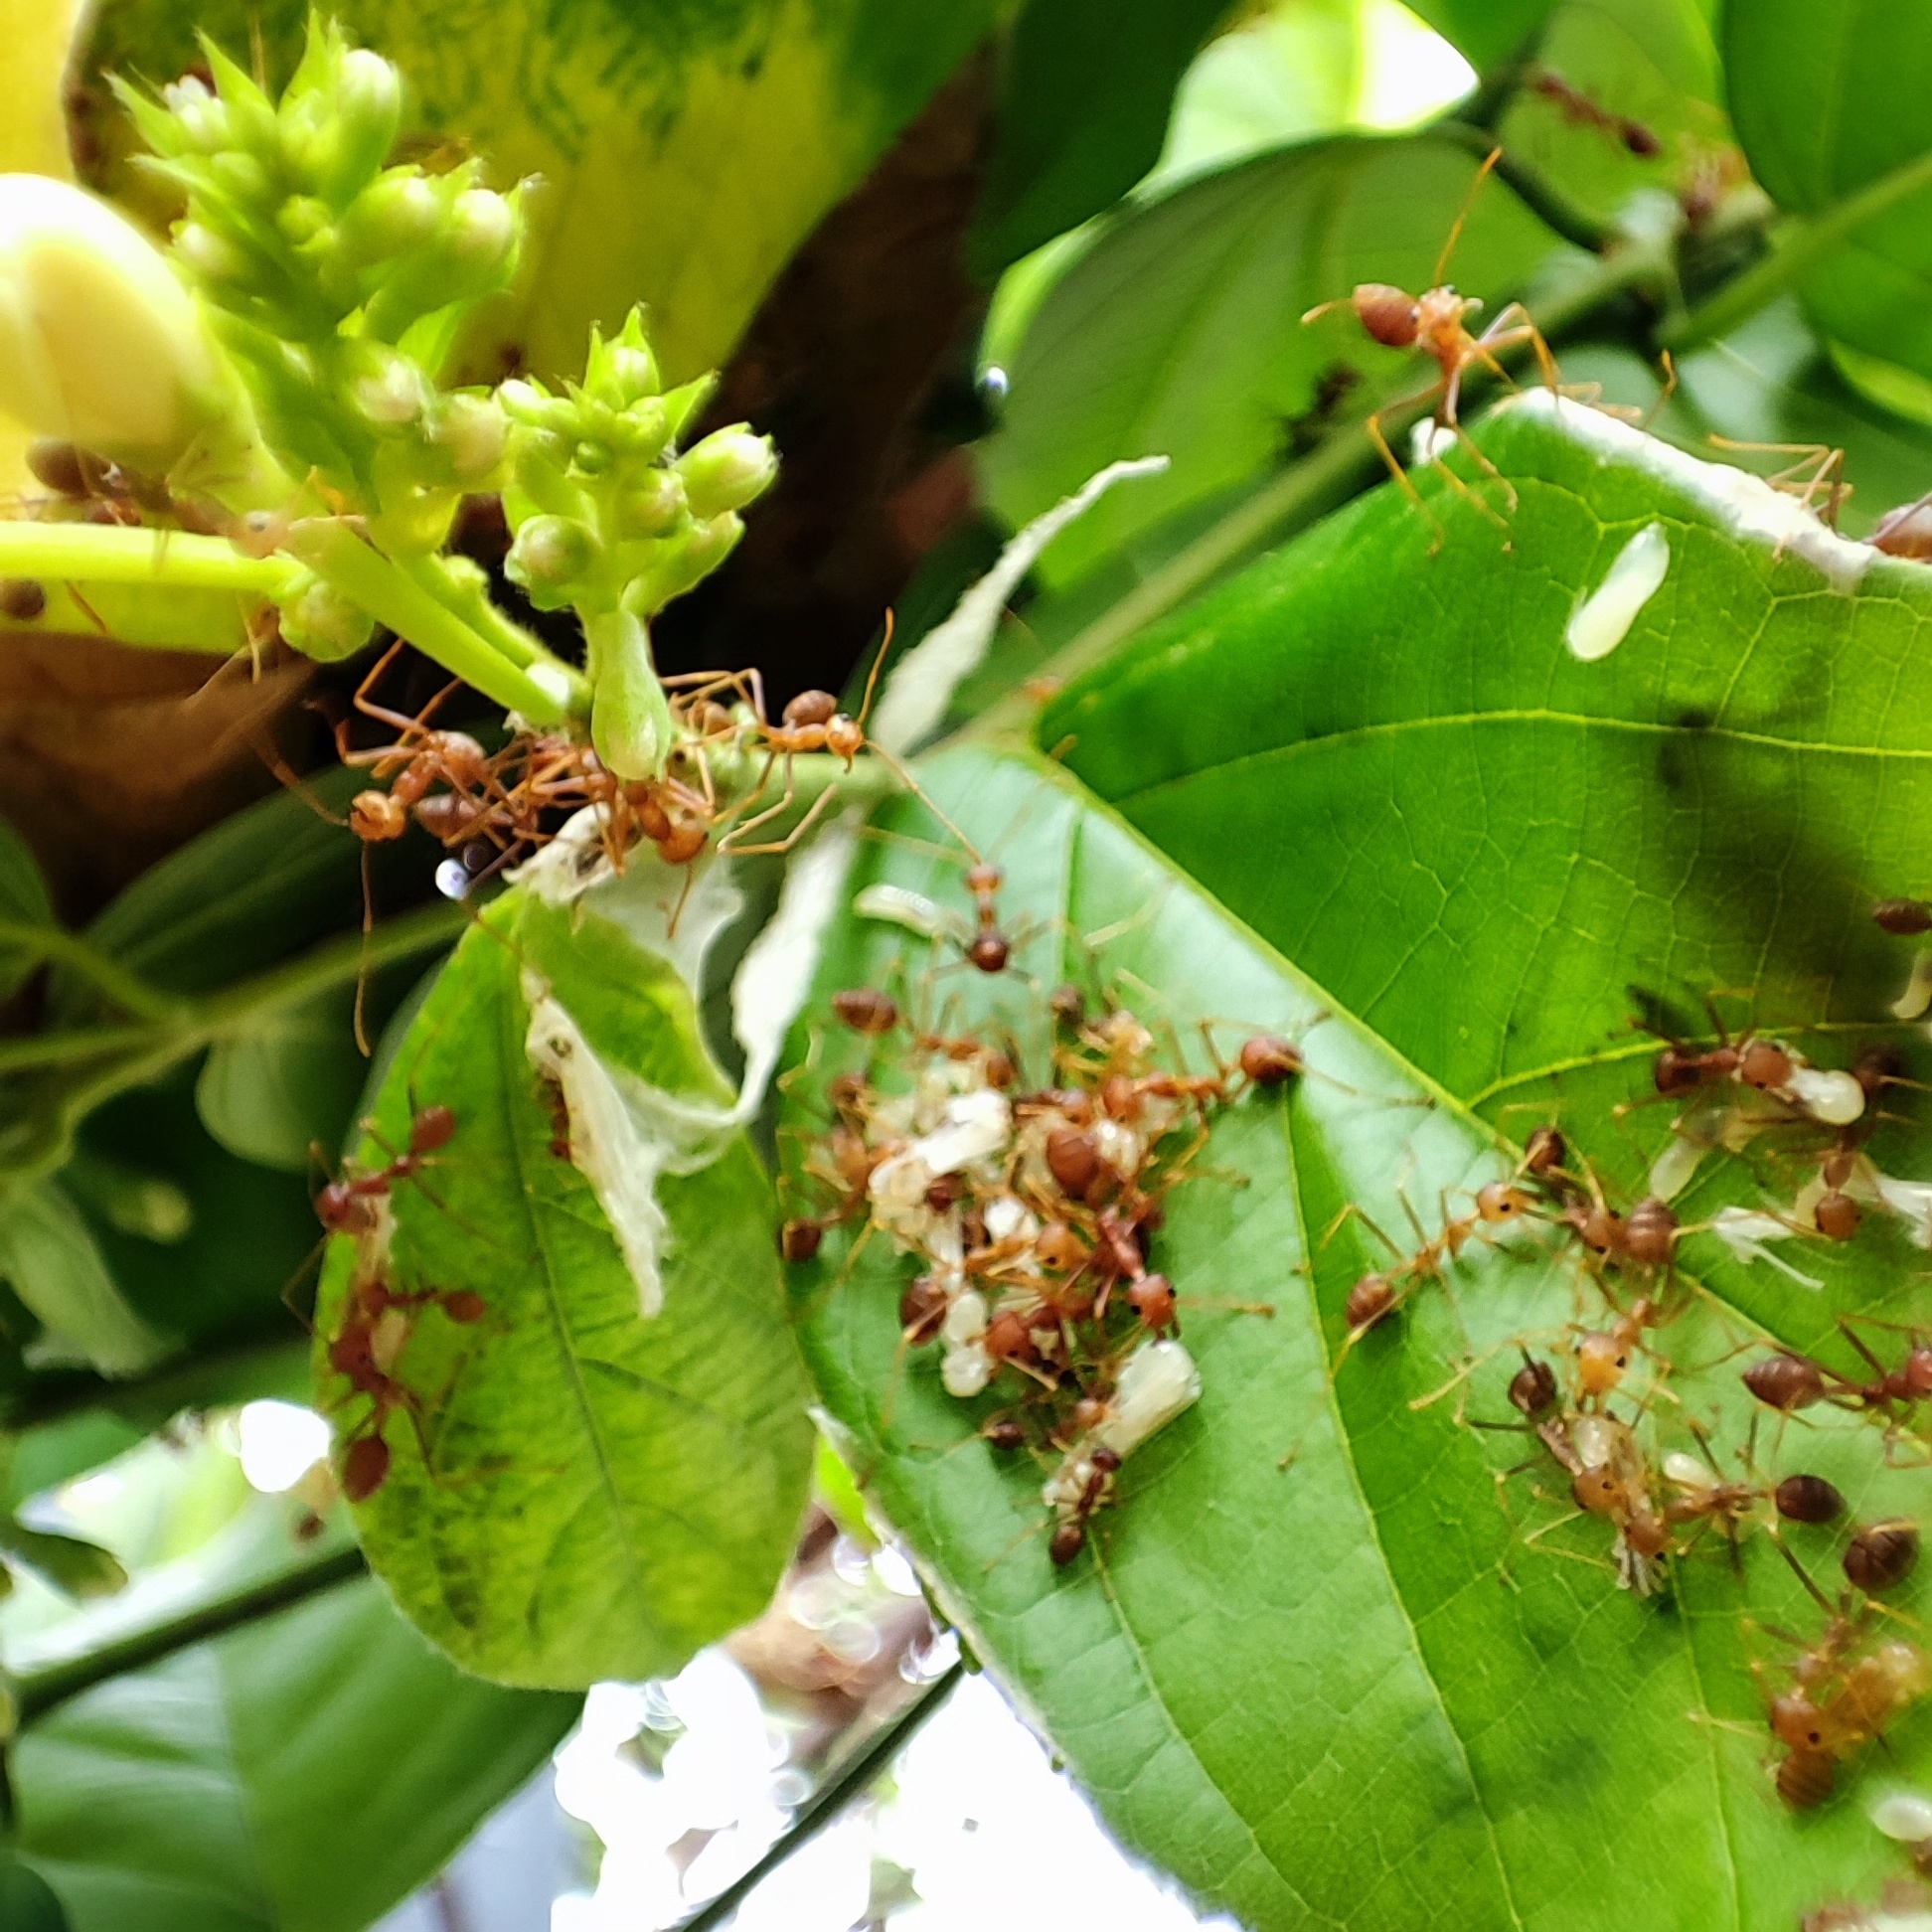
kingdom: Animalia
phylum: Arthropoda
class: Insecta
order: Hymenoptera
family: Formicidae
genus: Oecophylla
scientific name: Oecophylla smaragdina
